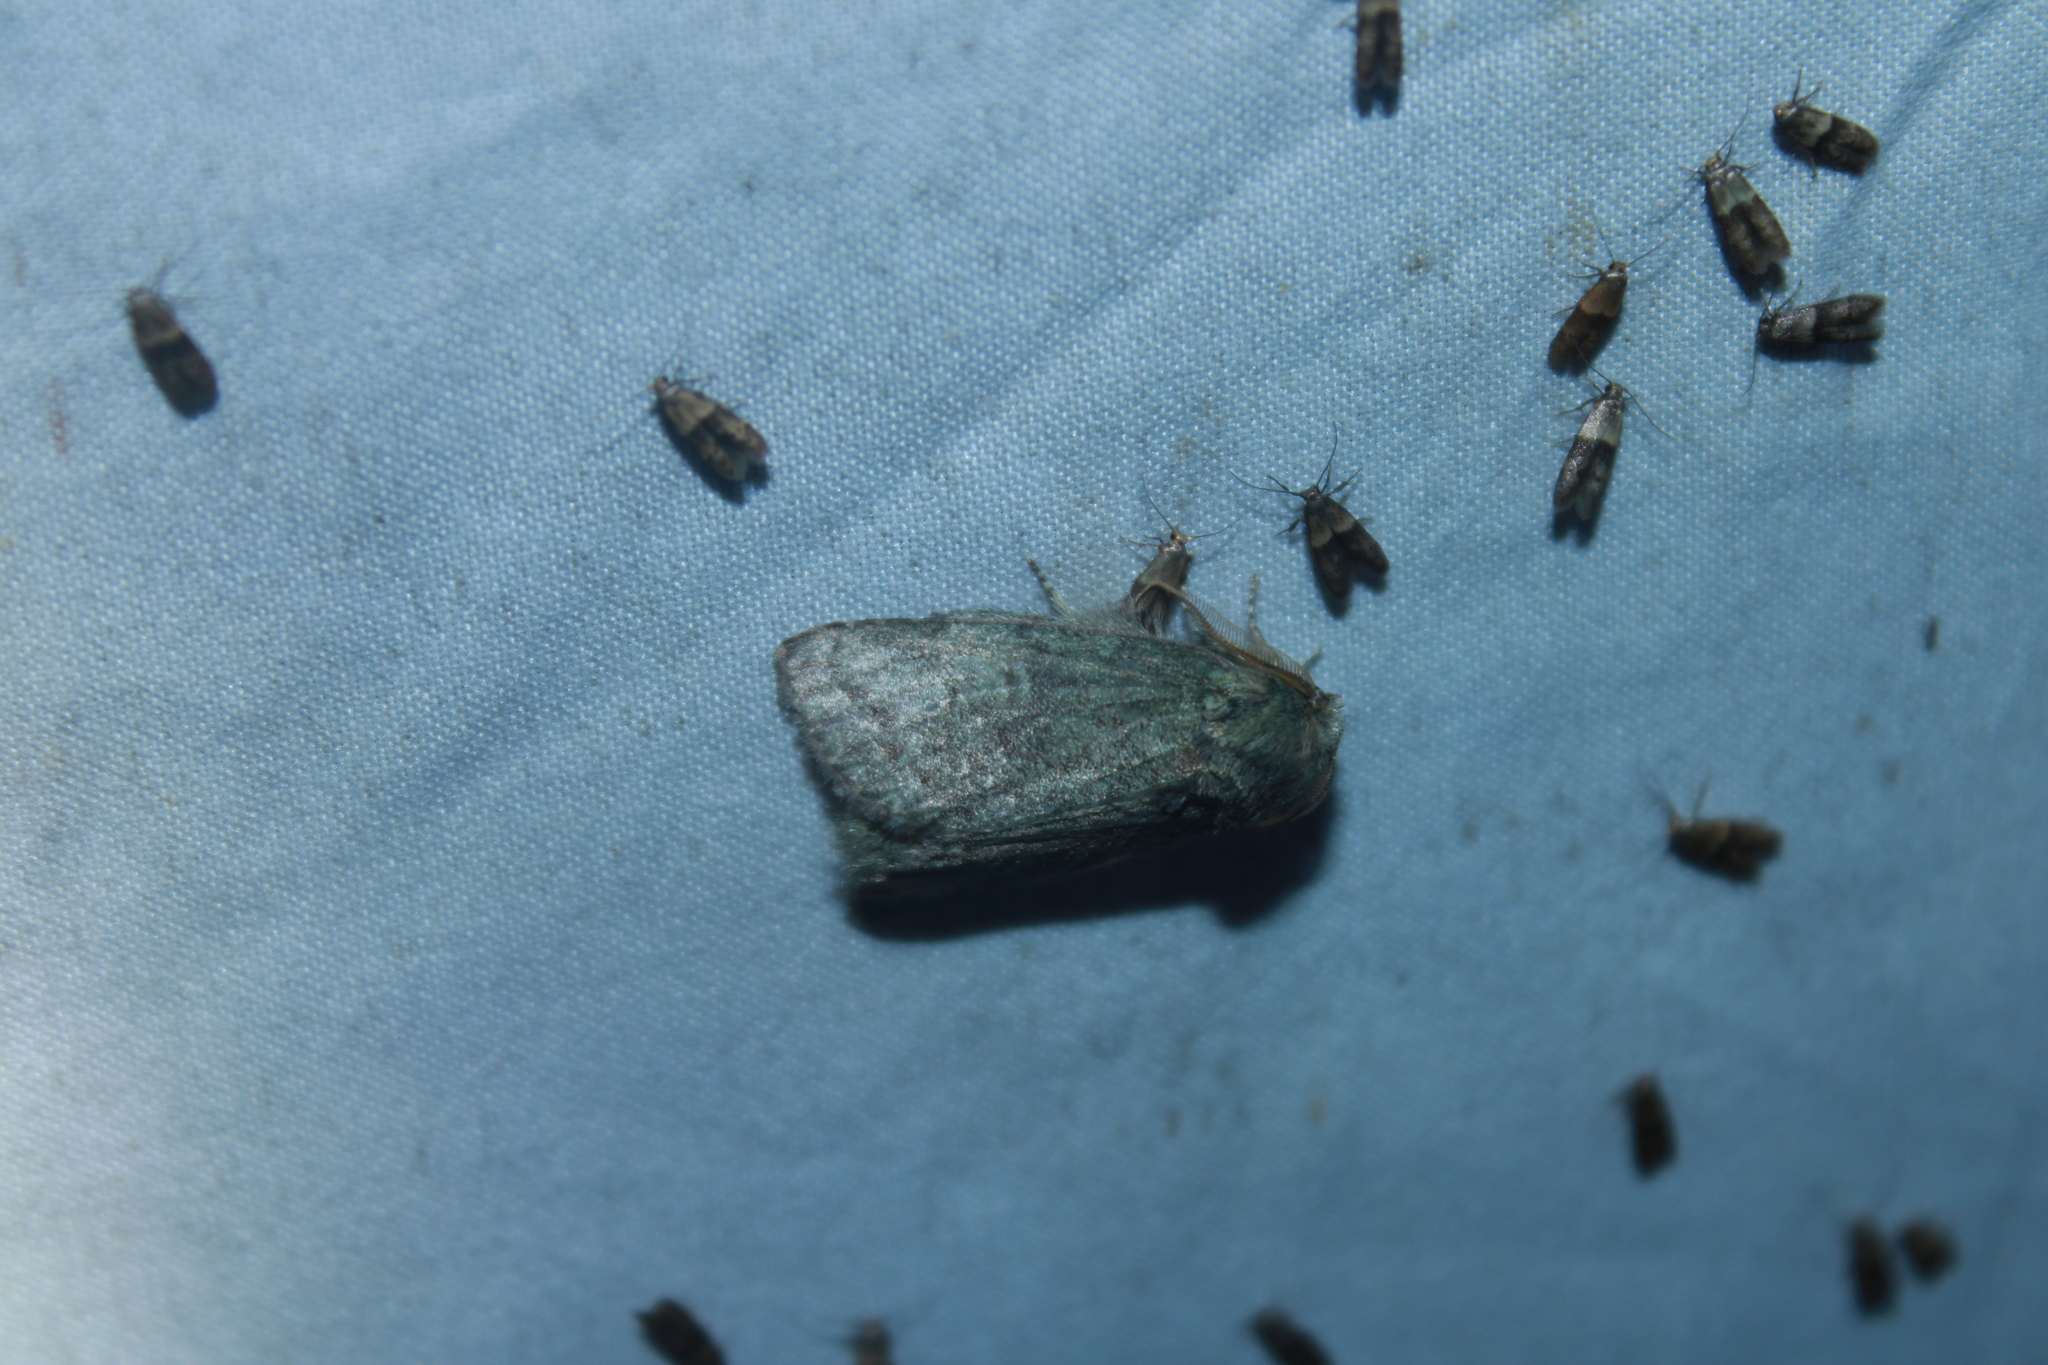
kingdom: Animalia
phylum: Arthropoda
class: Insecta
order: Lepidoptera
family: Notodontidae
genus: Disphragis
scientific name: Disphragis Cecrita guttivitta
